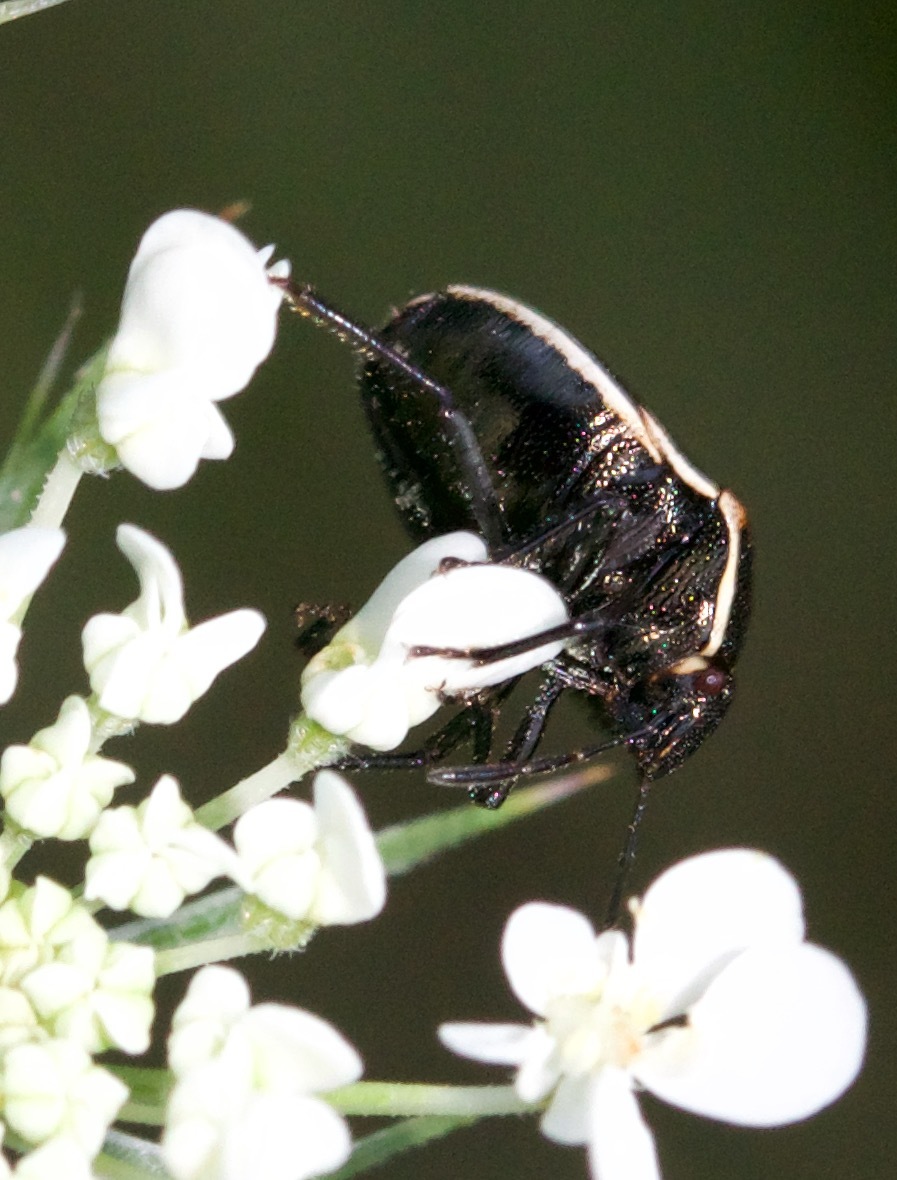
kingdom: Animalia
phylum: Arthropoda
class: Insecta
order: Hemiptera
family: Pentatomidae
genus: Cosmopepla
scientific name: Cosmopepla lintneriana
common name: Twice-stabbed stink bug
